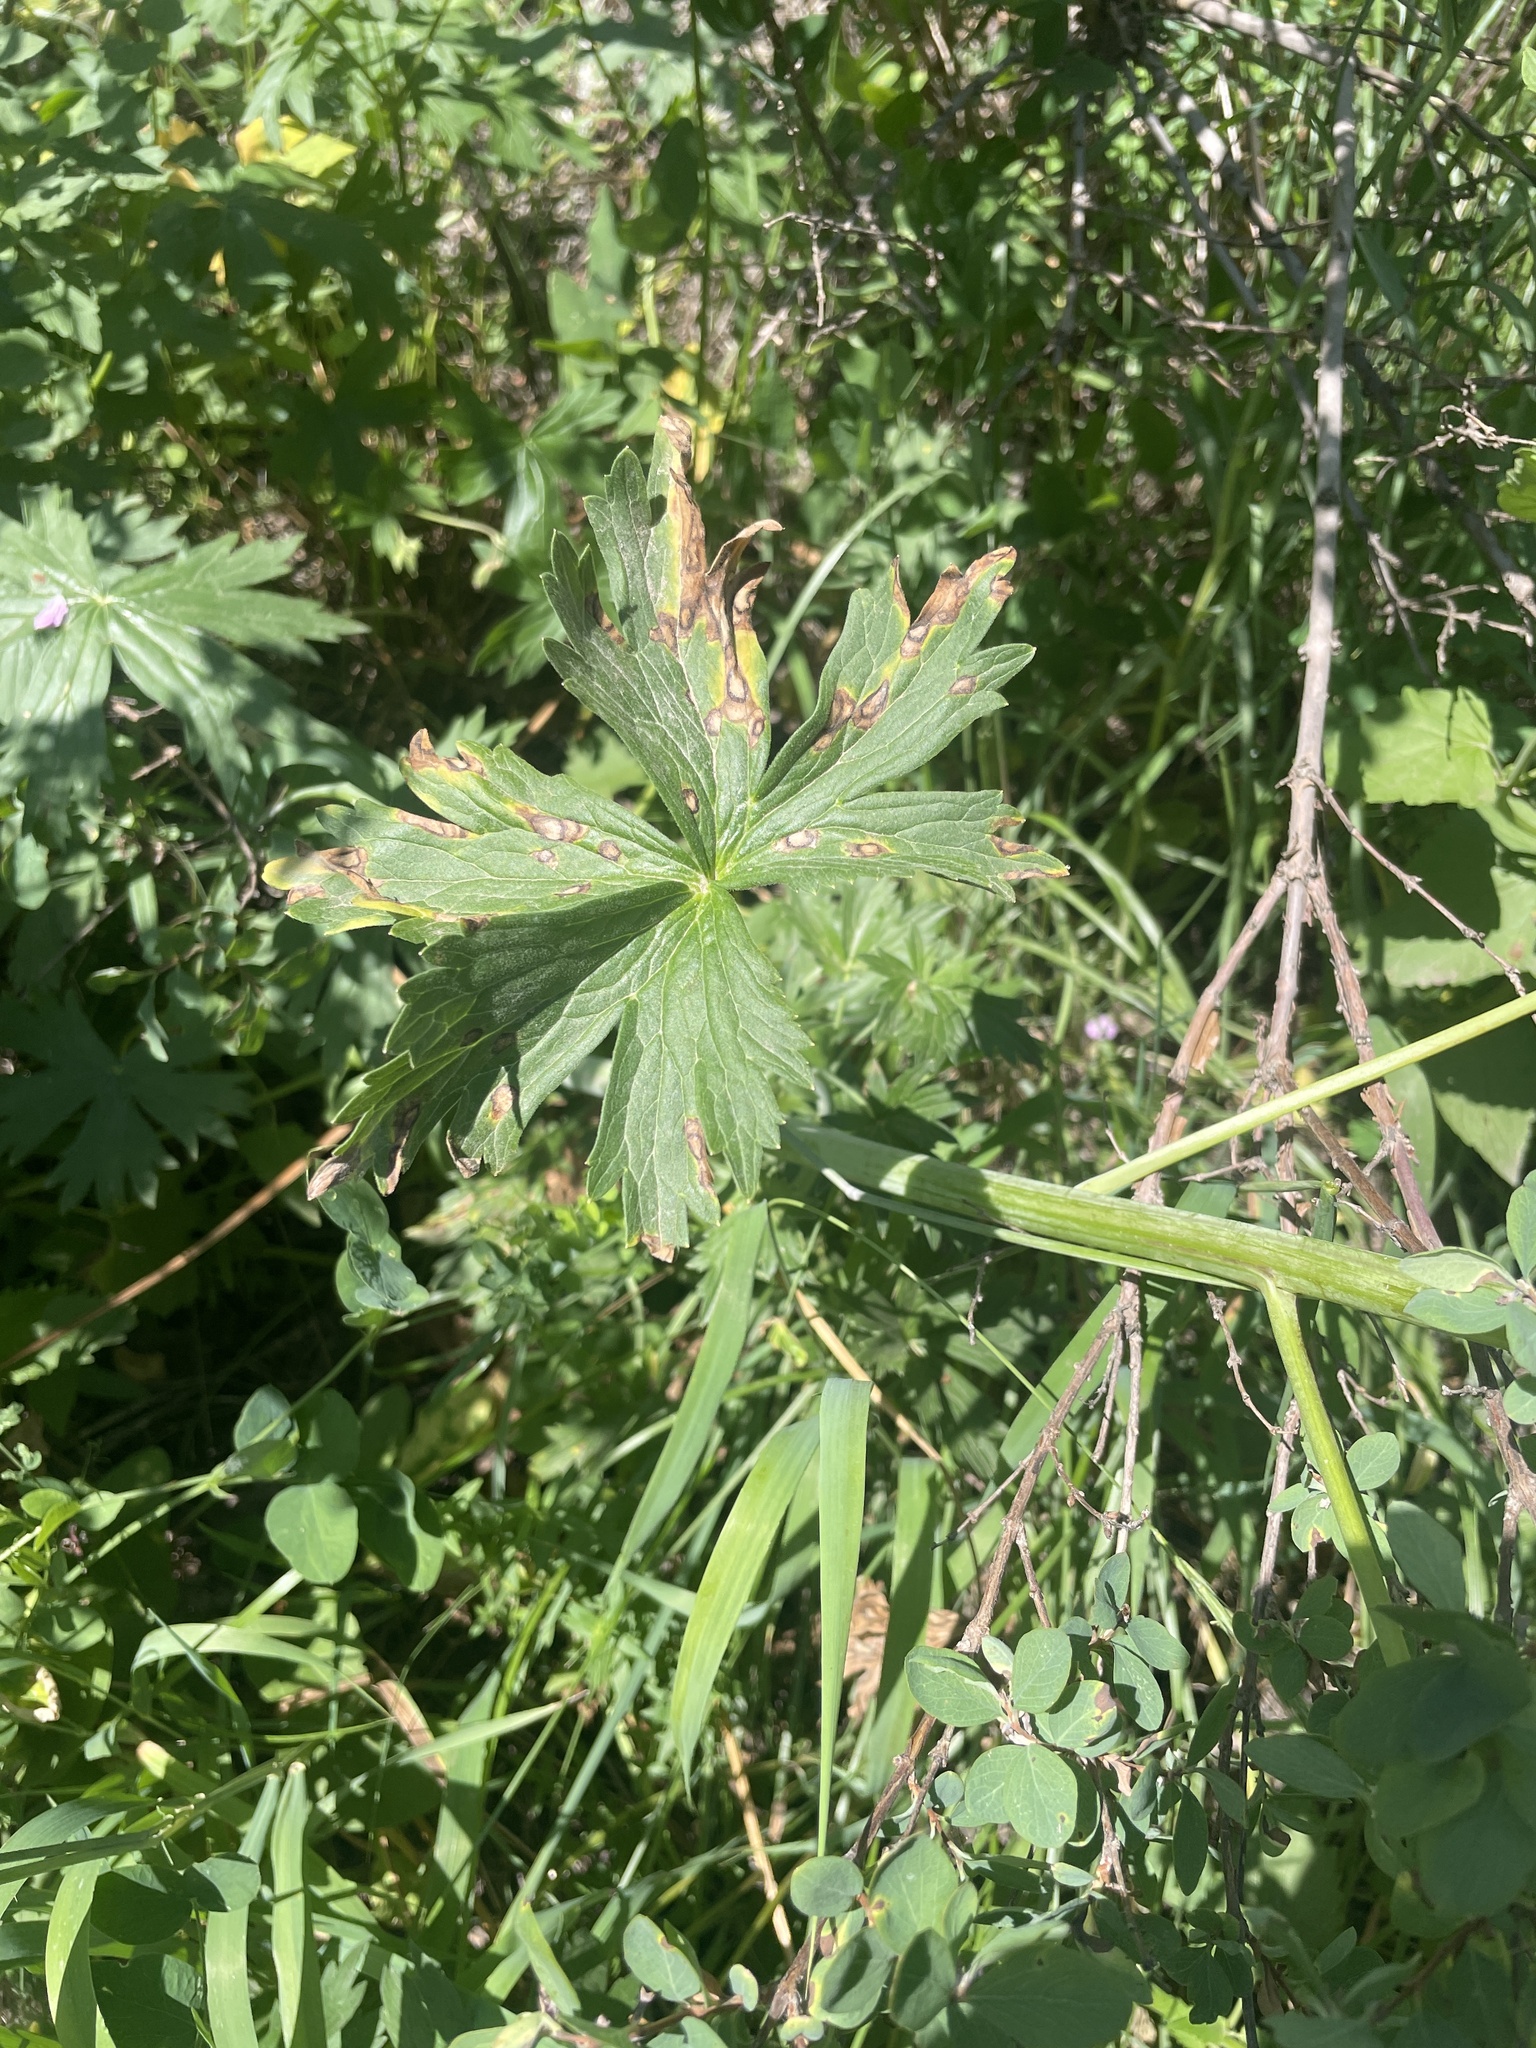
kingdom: Plantae
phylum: Tracheophyta
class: Magnoliopsida
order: Ranunculales
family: Ranunculaceae
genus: Delphinium
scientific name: Delphinium occidentale
